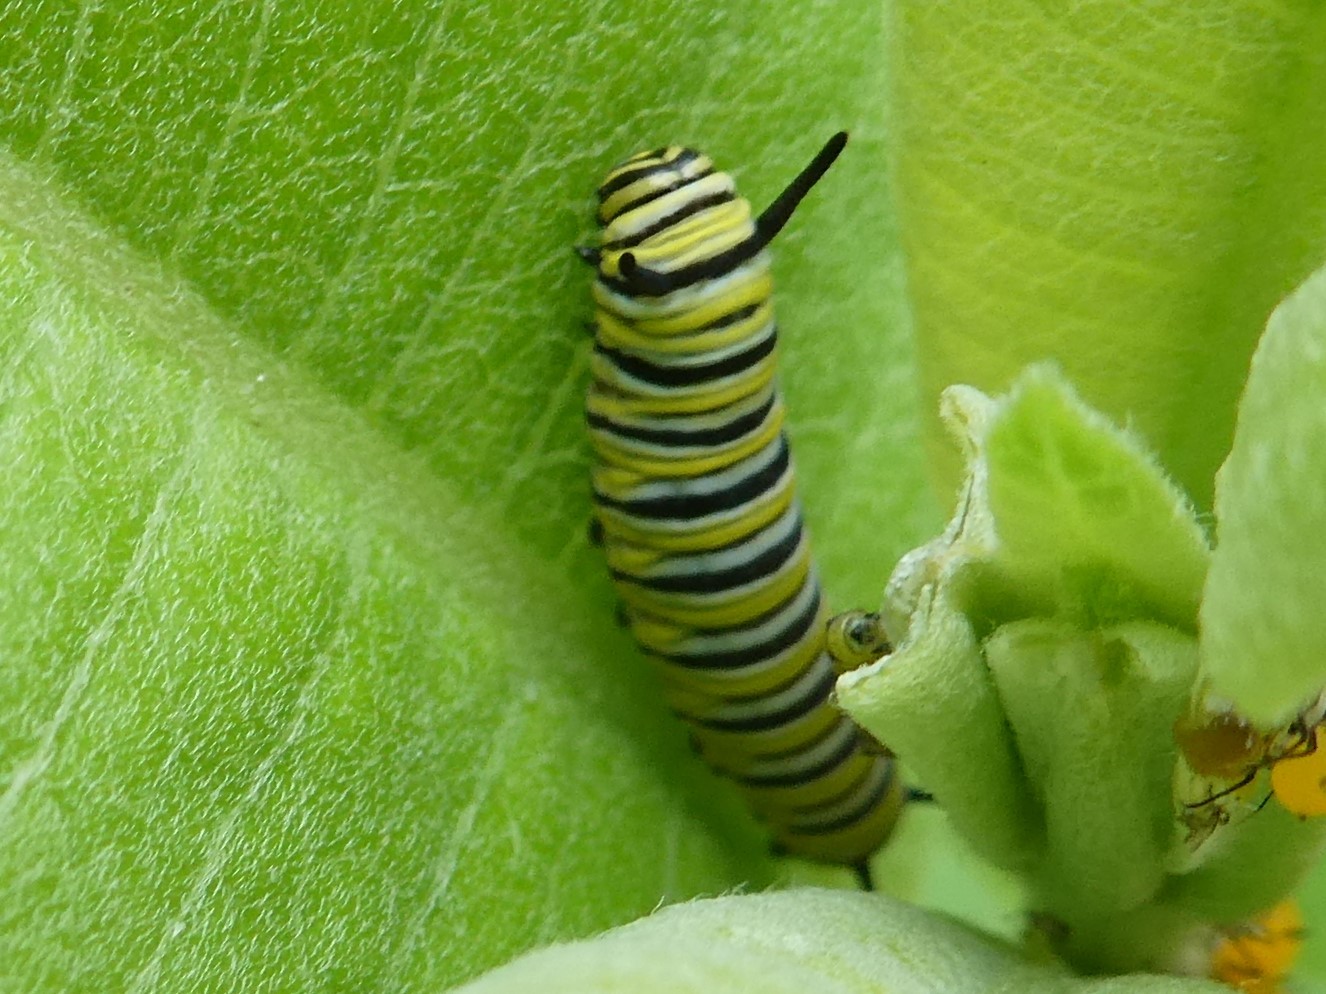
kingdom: Animalia
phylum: Arthropoda
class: Insecta
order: Lepidoptera
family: Nymphalidae
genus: Danaus
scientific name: Danaus plexippus
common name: Monarch
